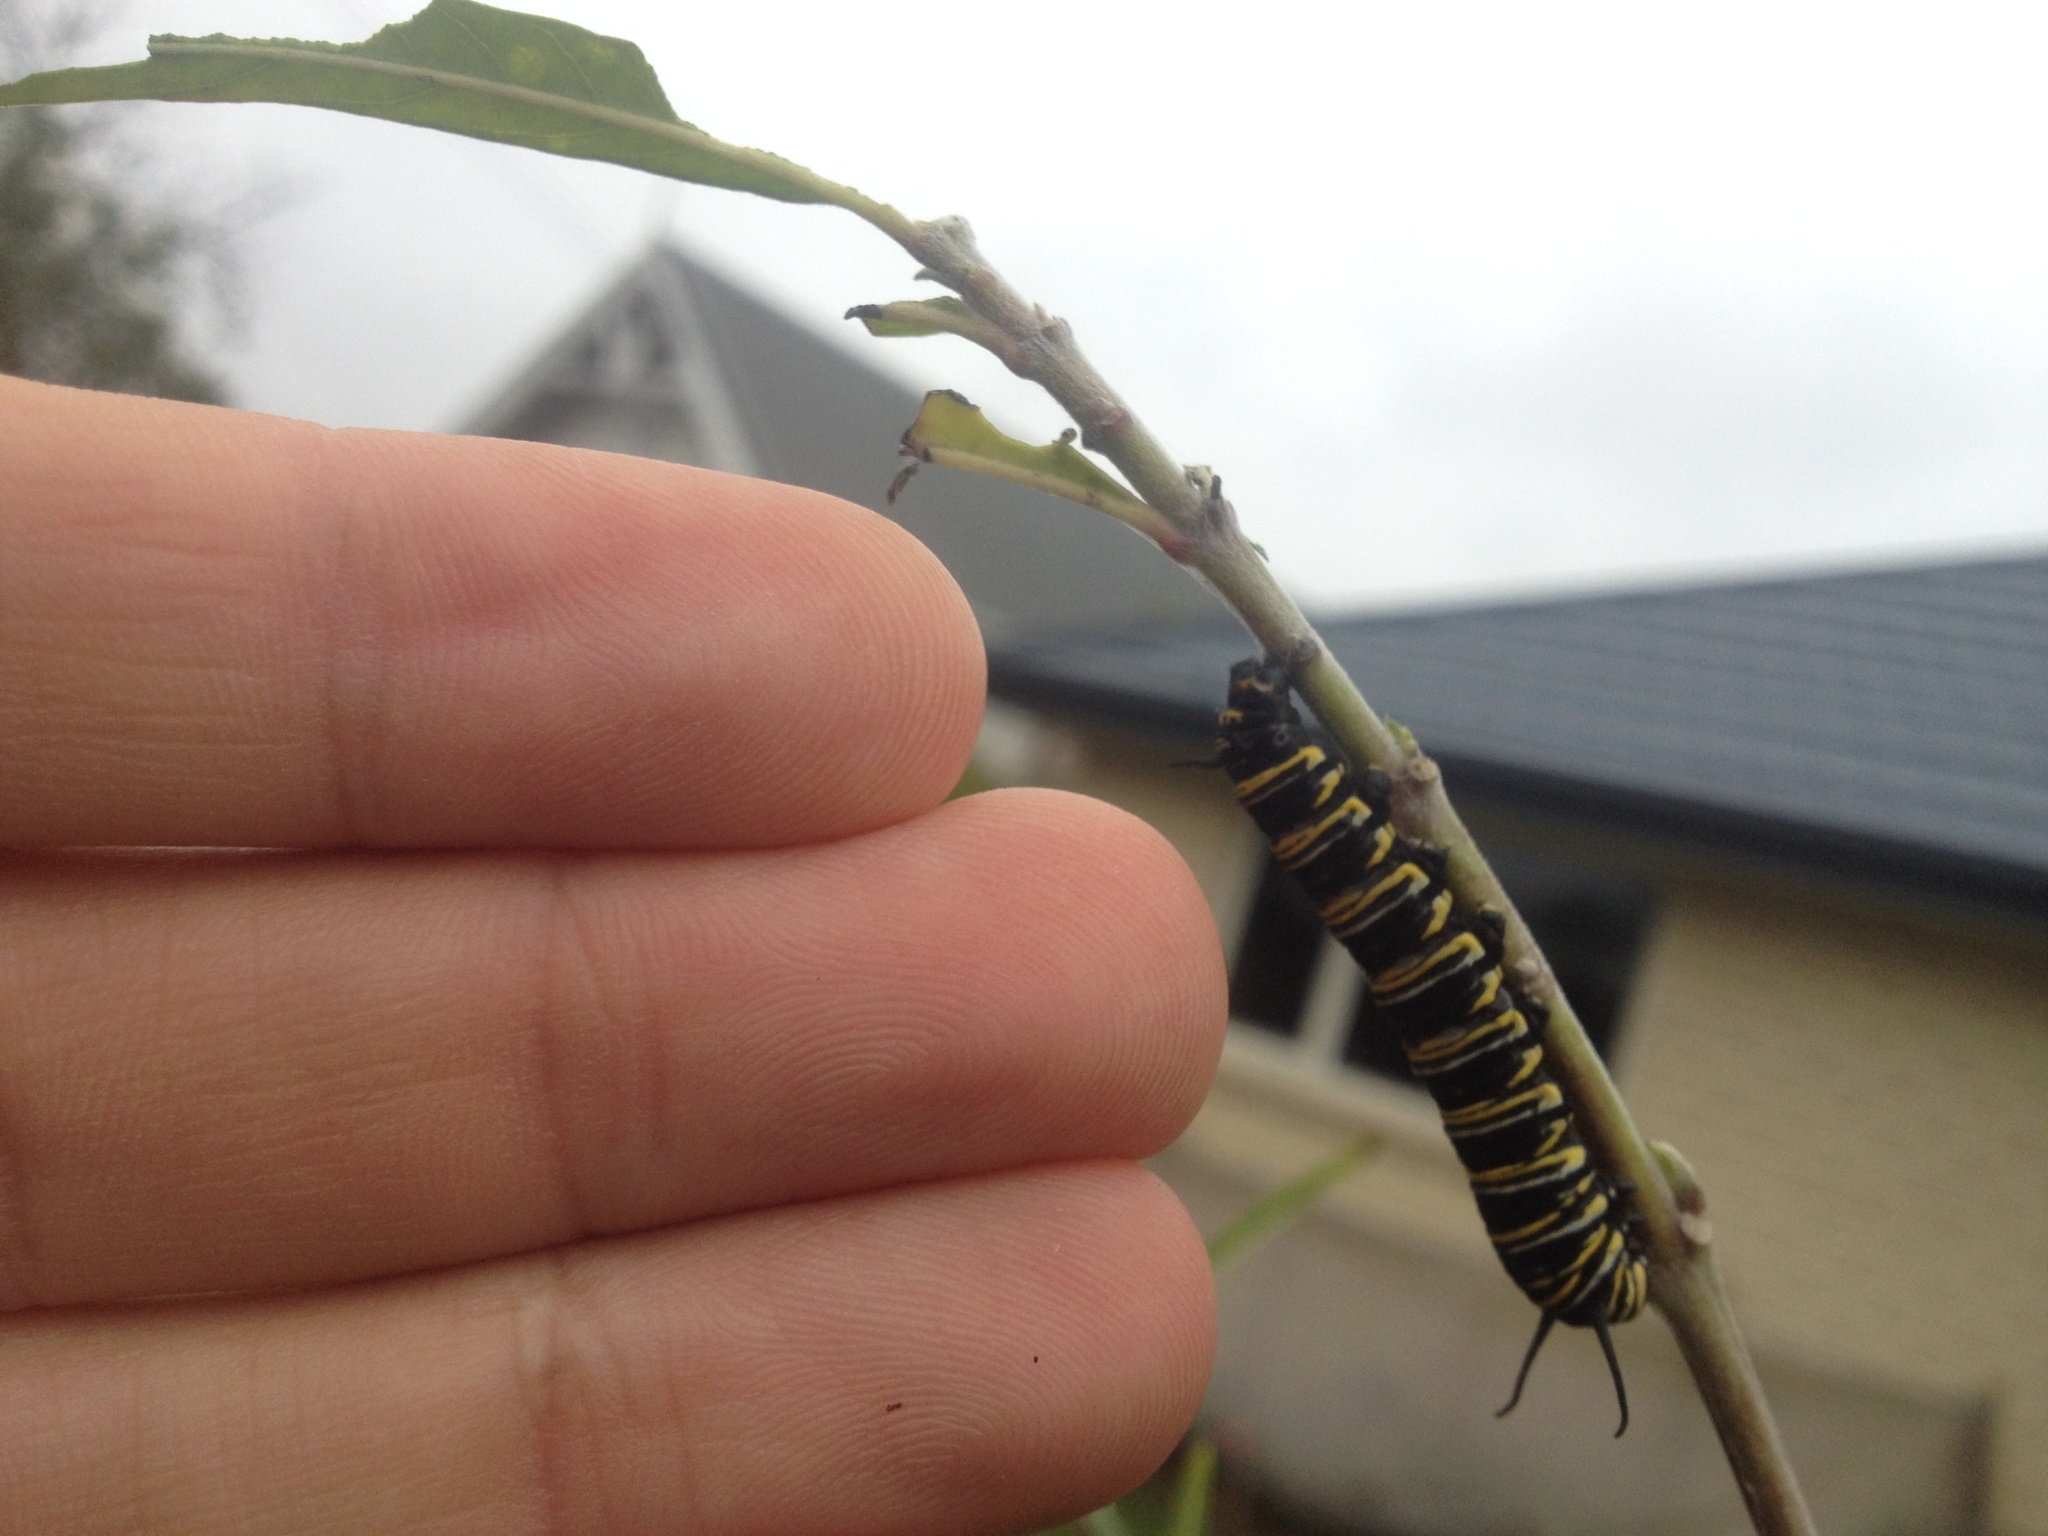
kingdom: Animalia
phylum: Arthropoda
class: Insecta
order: Lepidoptera
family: Nymphalidae
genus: Danaus
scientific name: Danaus plexippus
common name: Monarch
